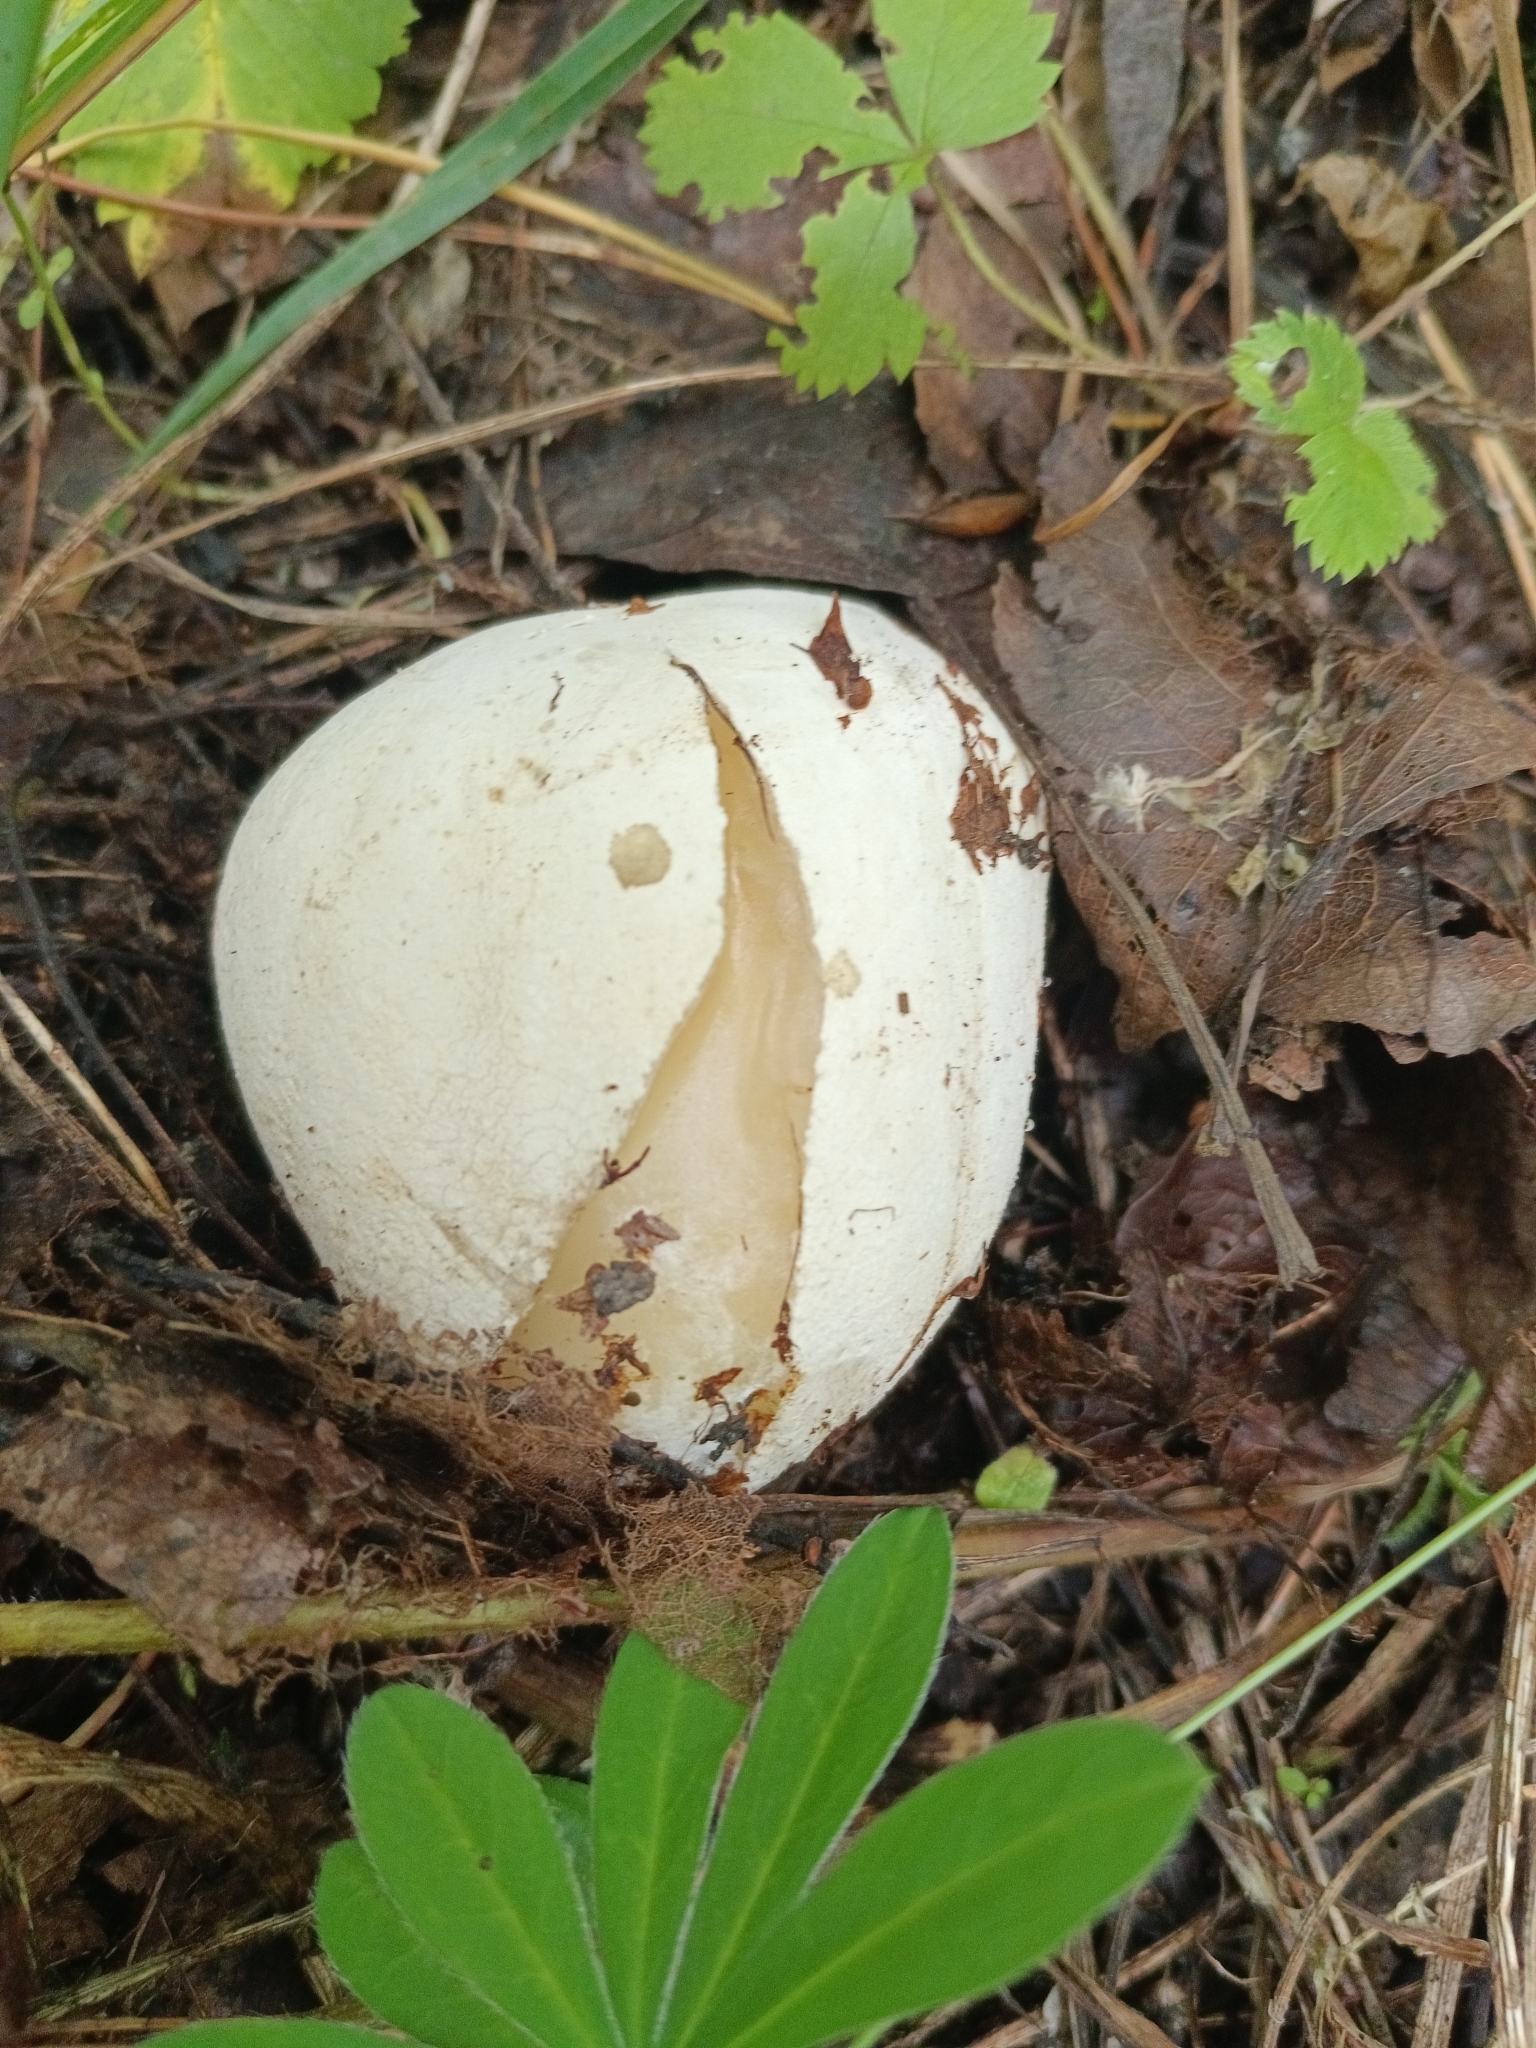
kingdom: Fungi
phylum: Basidiomycota
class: Agaricomycetes
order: Phallales
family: Phallaceae
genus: Phallus
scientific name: Phallus impudicus
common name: Common stinkhorn
